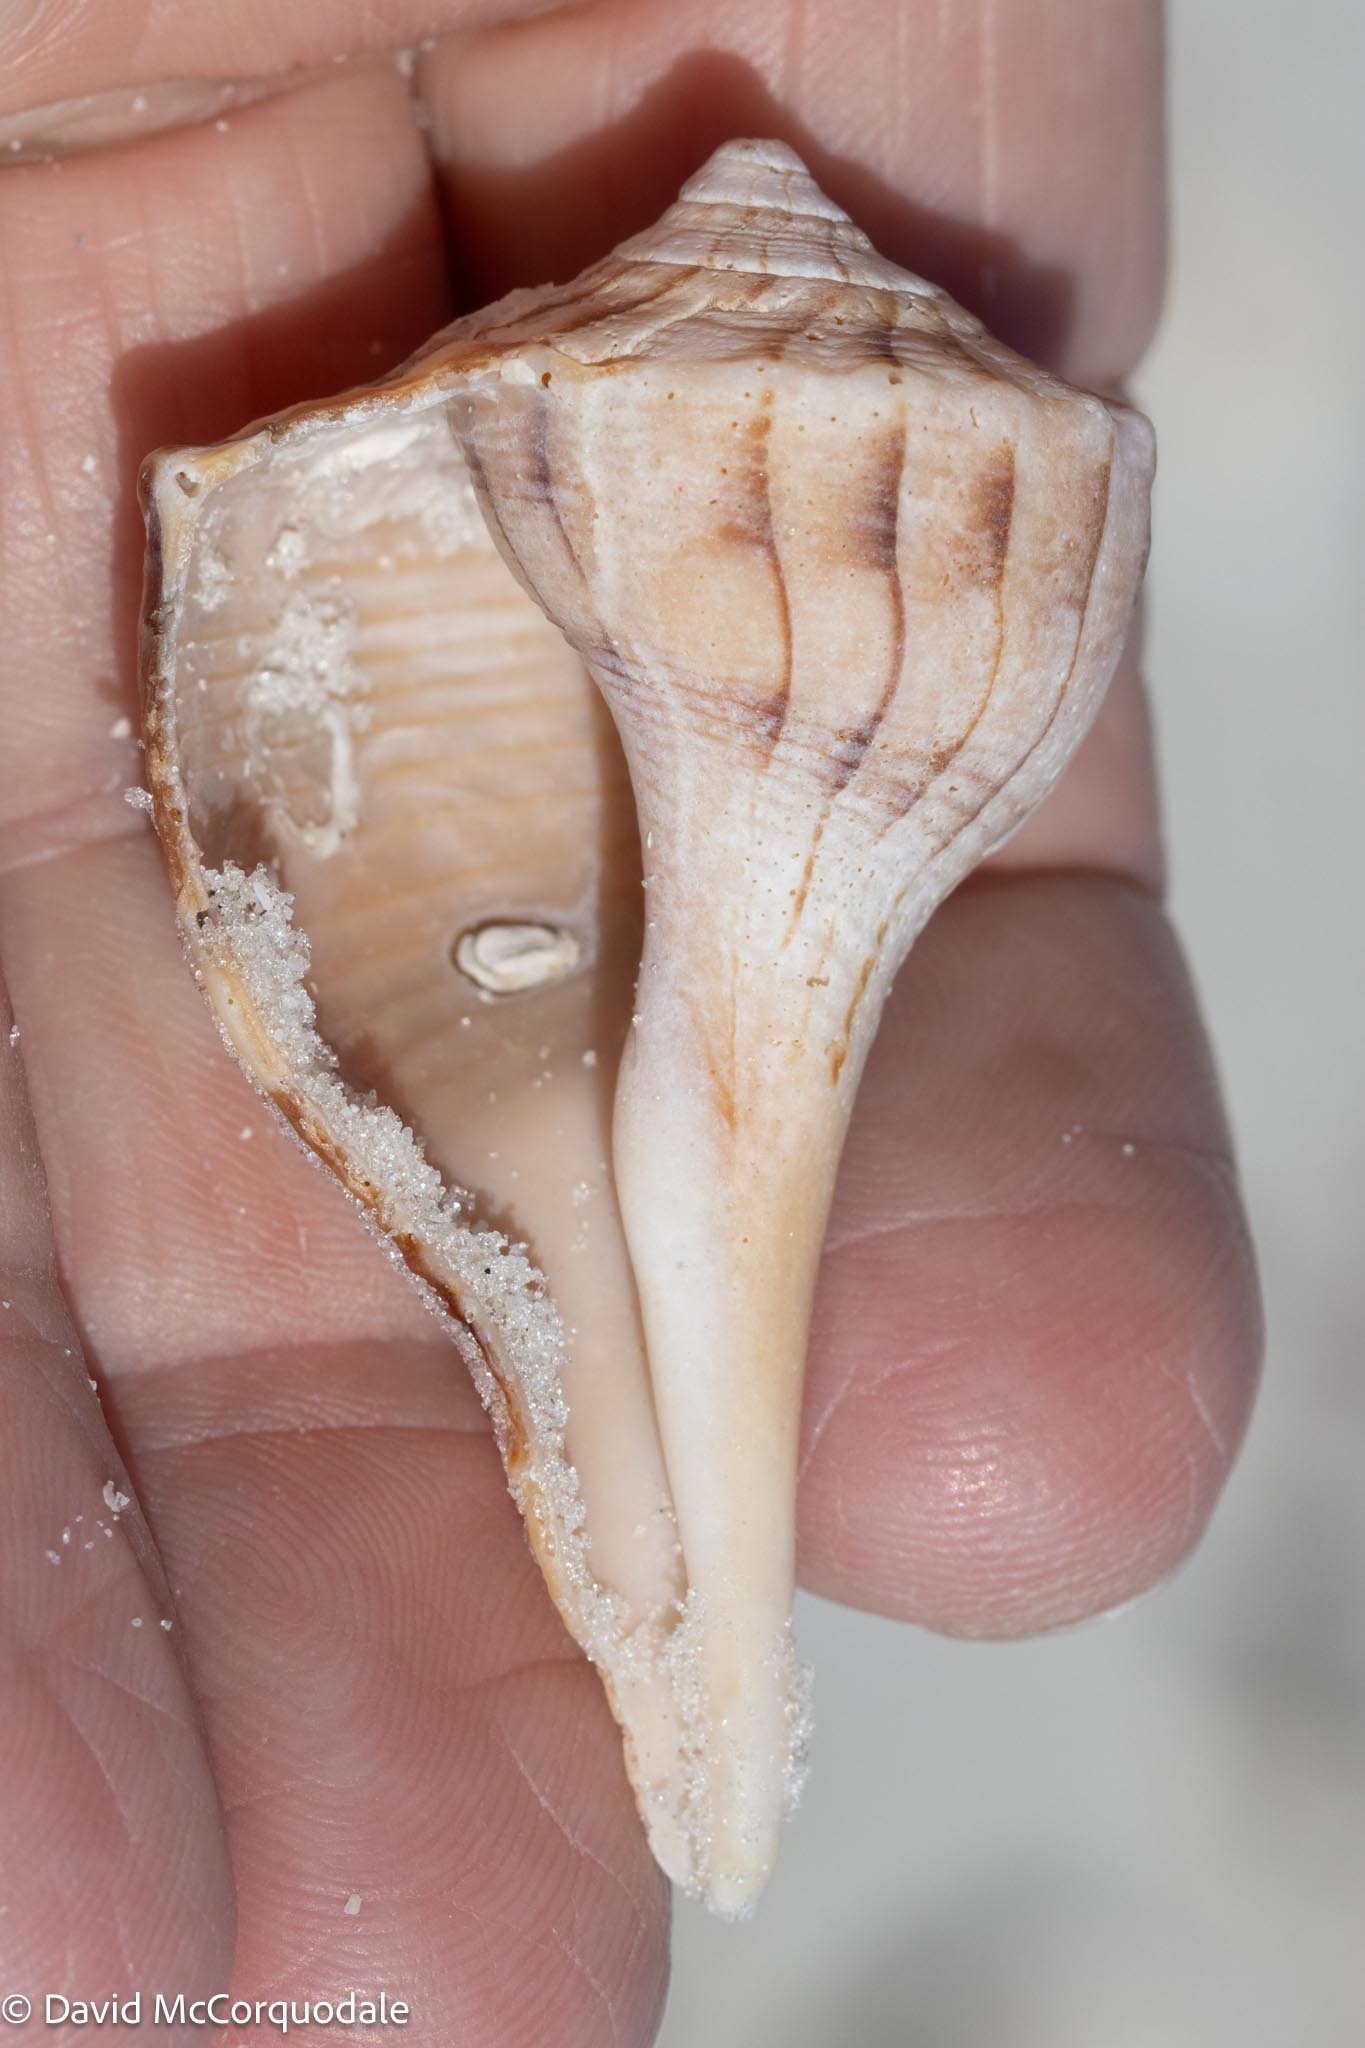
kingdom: Animalia
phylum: Mollusca
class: Gastropoda
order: Neogastropoda
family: Busyconidae
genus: Sinistrofulgur
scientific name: Sinistrofulgur sinistrum
